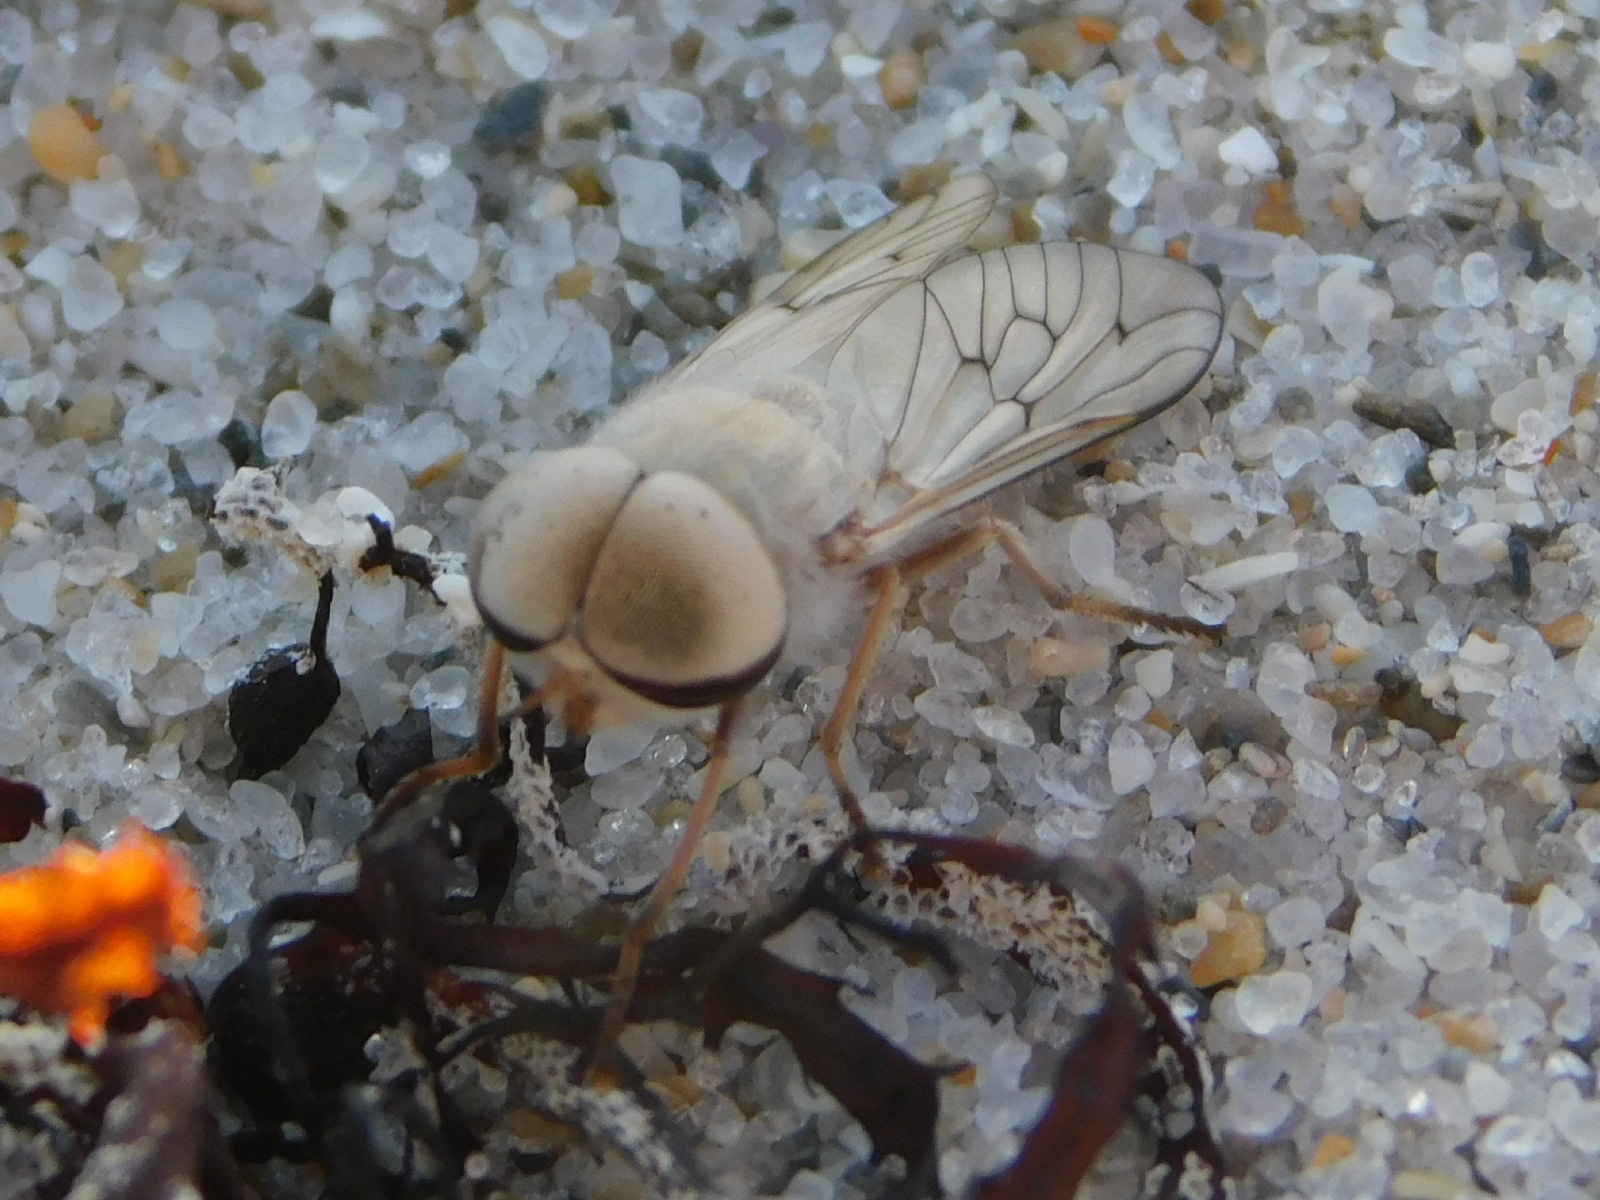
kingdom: Animalia
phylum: Arthropoda
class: Insecta
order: Diptera
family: Tabanidae
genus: Stenotabanus
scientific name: Stenotabanus psammophilus
